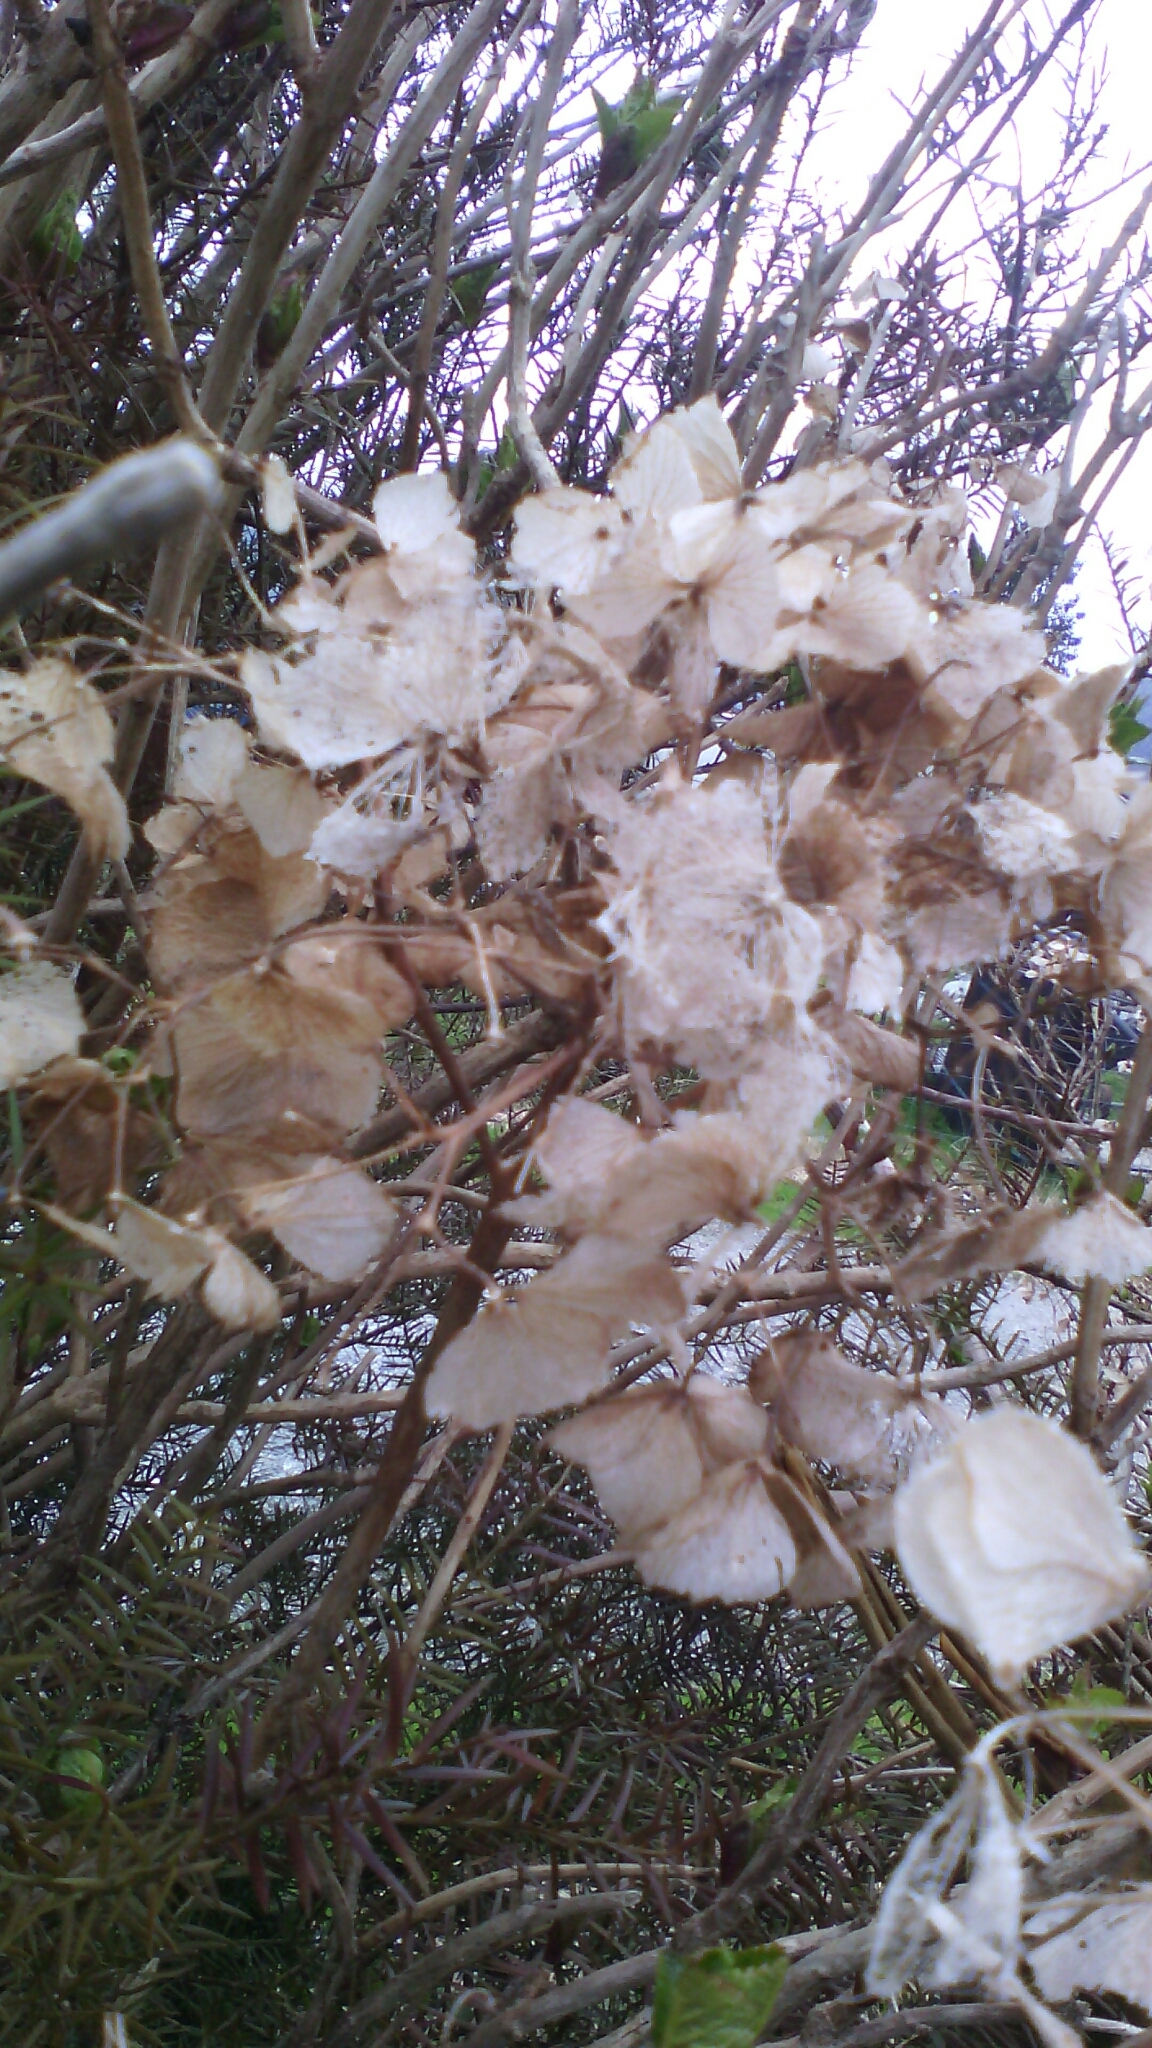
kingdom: Plantae
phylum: Tracheophyta
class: Magnoliopsida
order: Cornales
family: Hydrangeaceae
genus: Hydrangea
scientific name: Hydrangea macrophylla
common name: Hydrangea
